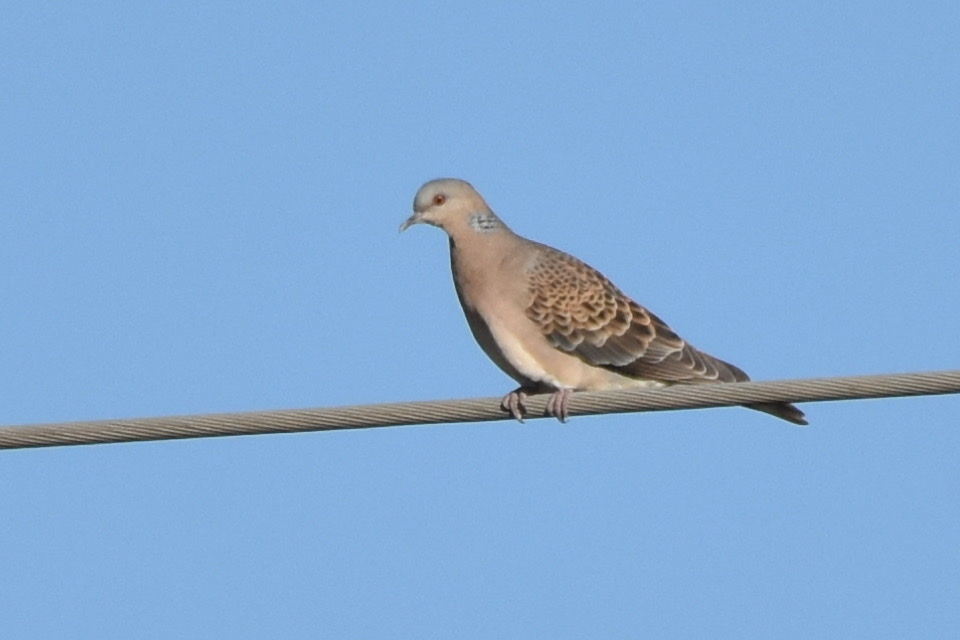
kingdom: Animalia
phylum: Chordata
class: Aves
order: Columbiformes
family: Columbidae
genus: Streptopelia
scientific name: Streptopelia orientalis
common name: Oriental turtle dove
